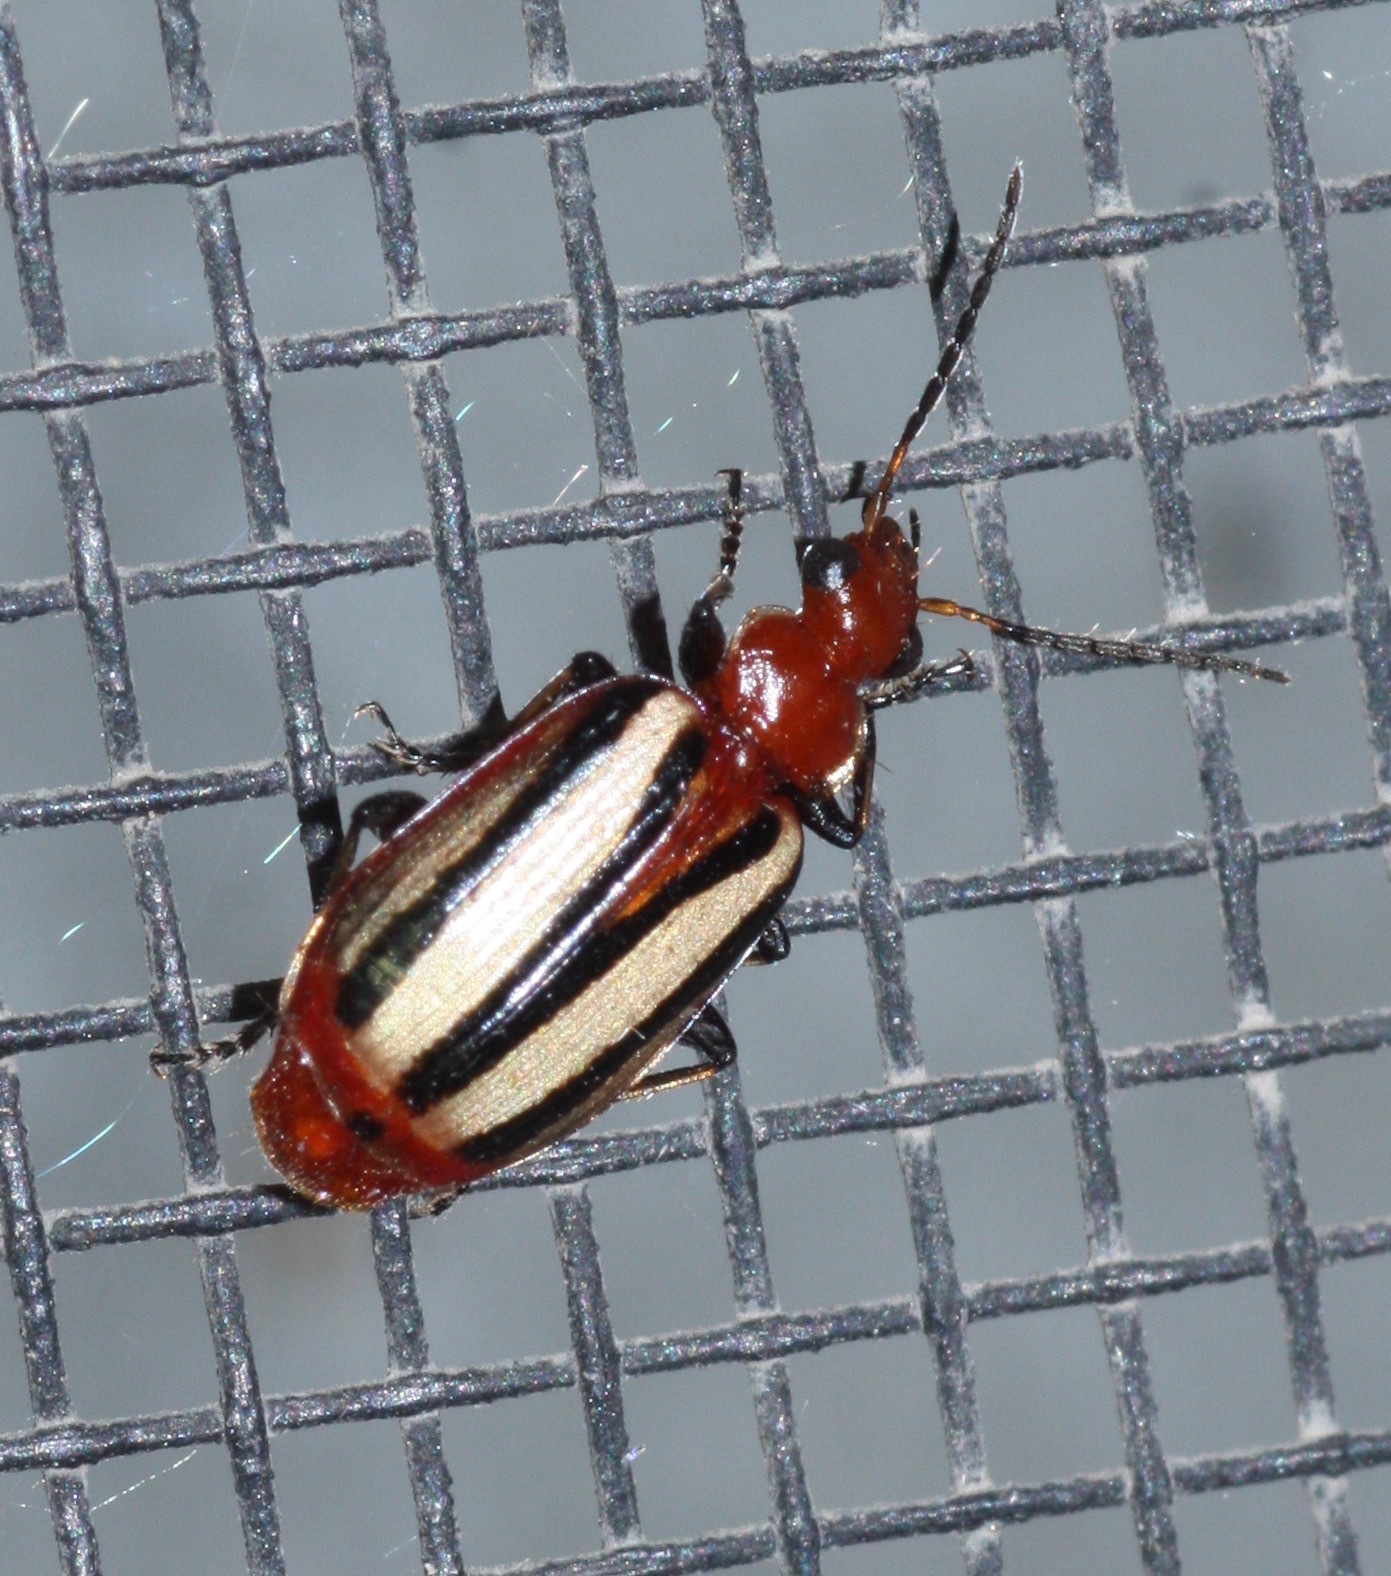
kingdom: Animalia
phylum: Arthropoda
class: Insecta
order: Coleoptera
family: Carabidae
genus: Lebia
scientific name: Lebia vittata
